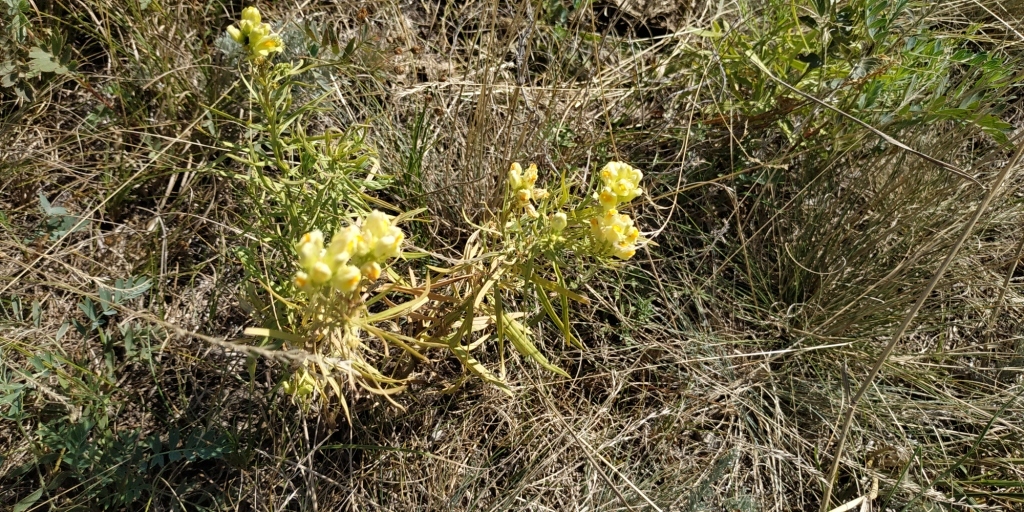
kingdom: Plantae
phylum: Tracheophyta
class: Magnoliopsida
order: Lamiales
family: Plantaginaceae
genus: Linaria
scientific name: Linaria vulgaris
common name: Butter and eggs
